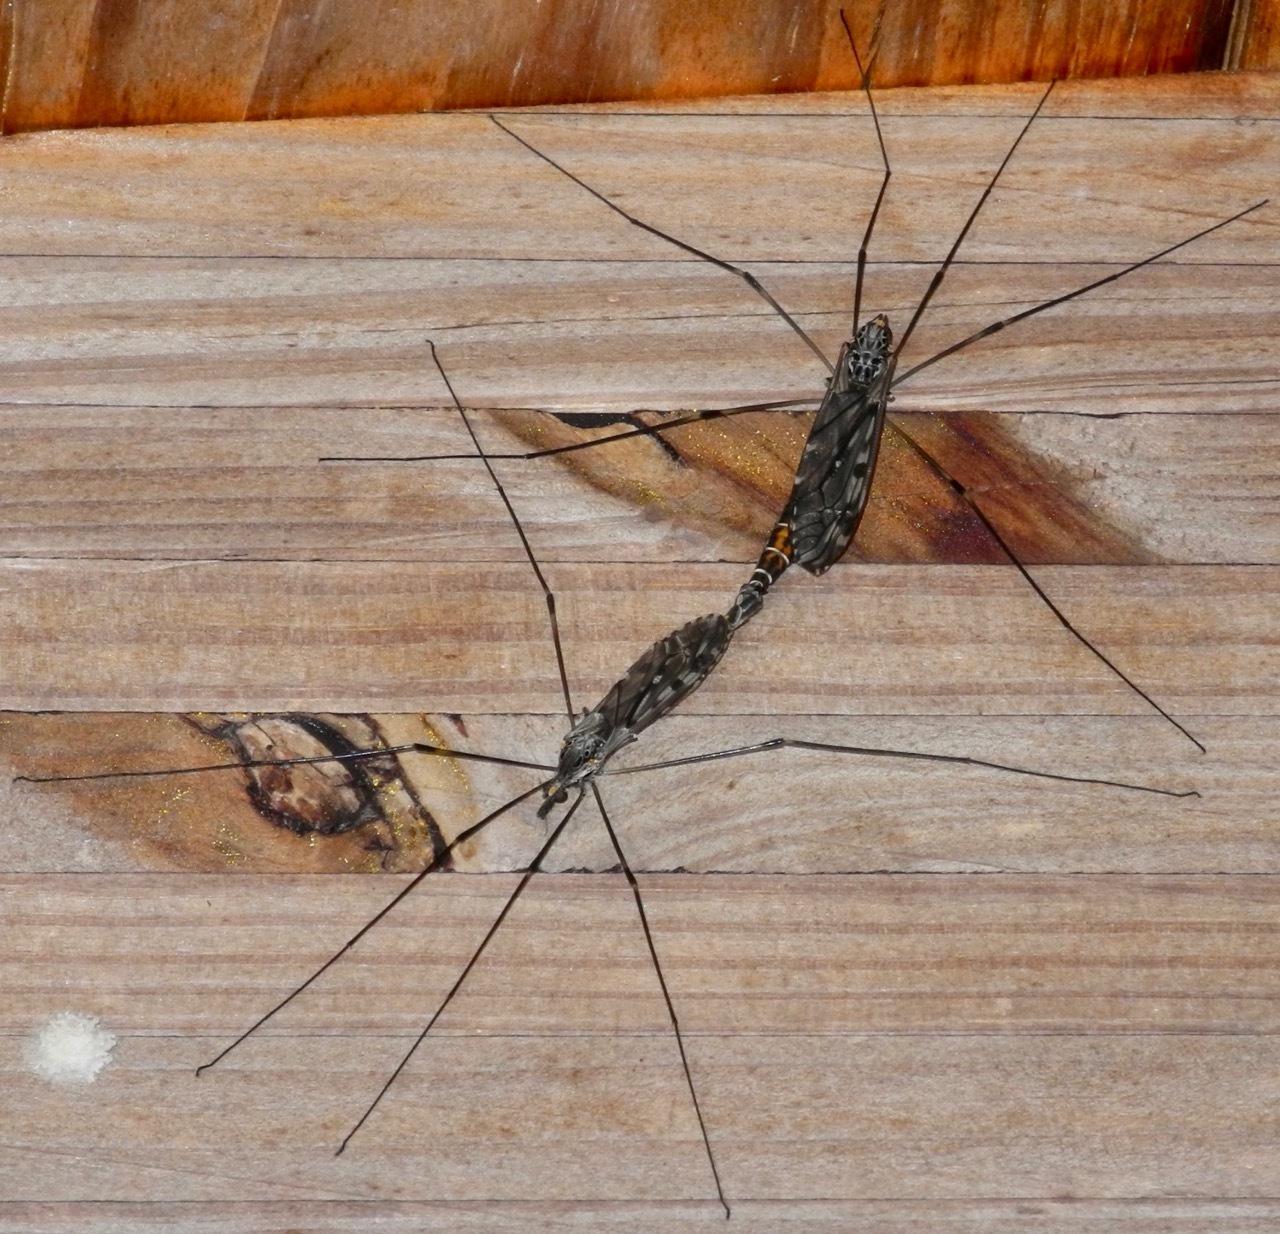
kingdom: Animalia
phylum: Arthropoda
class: Insecta
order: Diptera
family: Tipulidae
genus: Tipula
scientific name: Tipula abdominalis
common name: Giant crane fly
